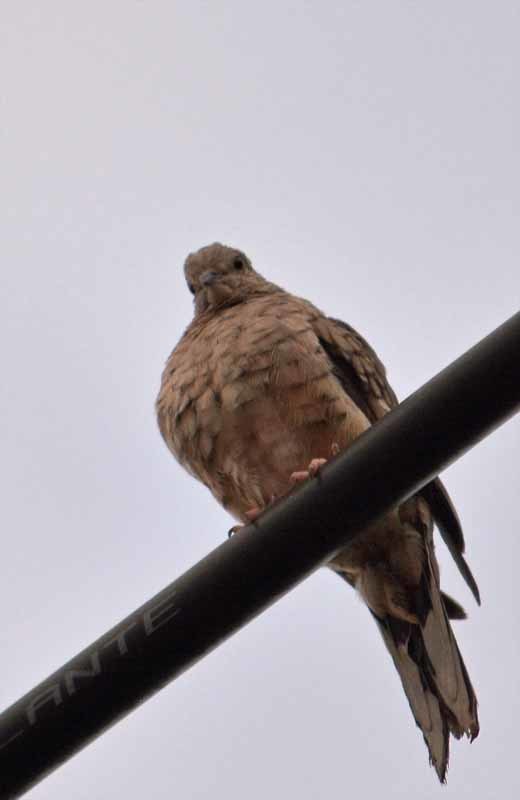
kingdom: Animalia
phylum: Chordata
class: Aves
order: Columbiformes
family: Columbidae
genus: Columbina
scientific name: Columbina inca
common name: Inca dove
